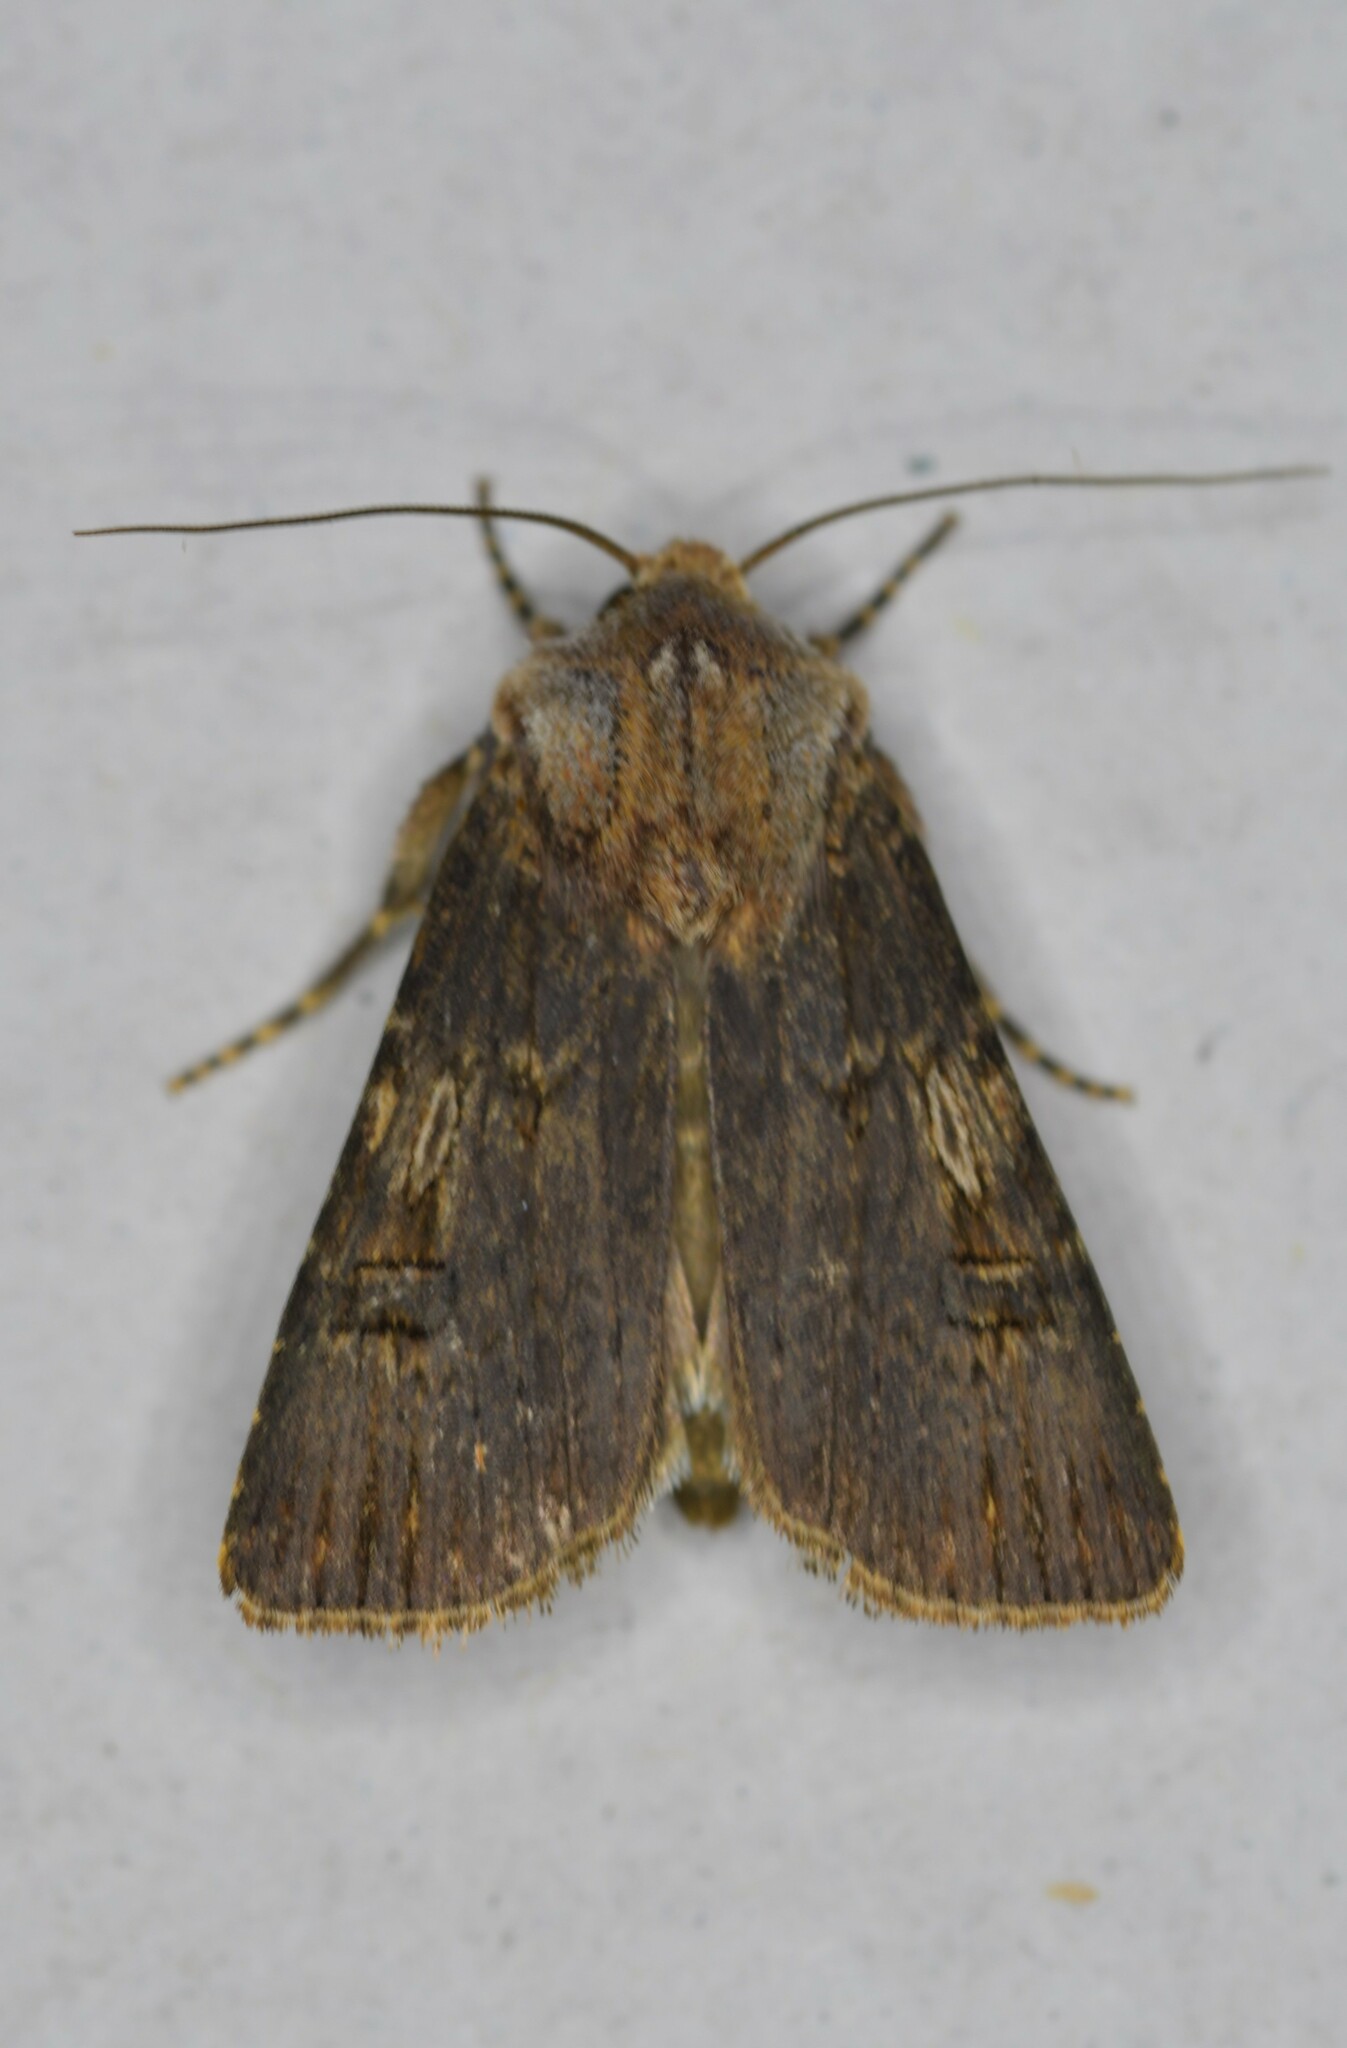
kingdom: Animalia
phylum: Arthropoda
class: Insecta
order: Lepidoptera
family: Noctuidae
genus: Agrotis
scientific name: Agrotis puta
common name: Shuttle-shaped dart
